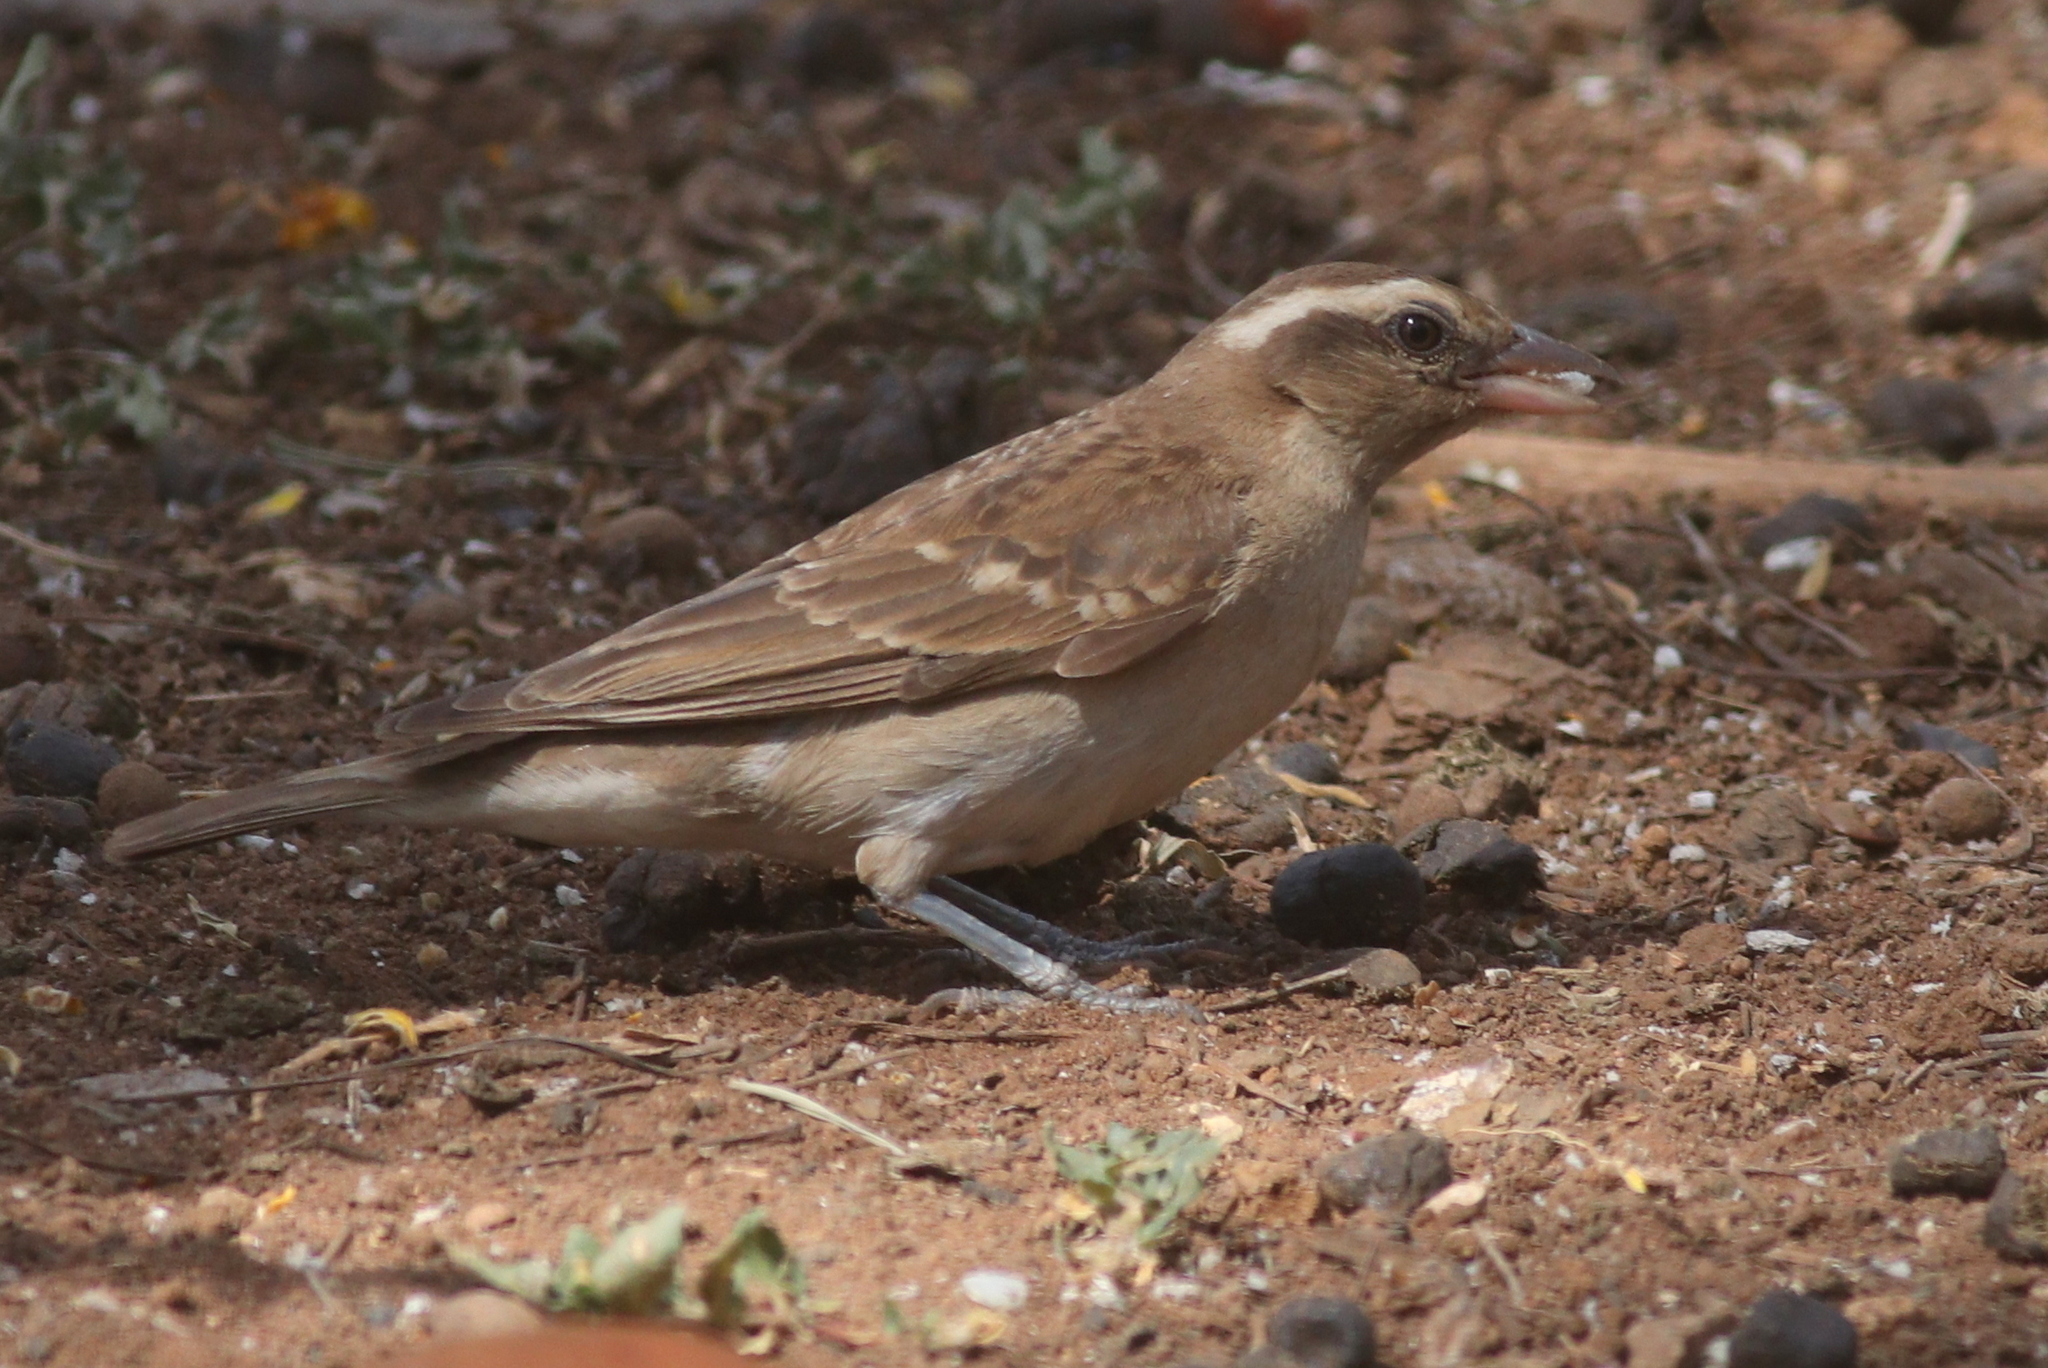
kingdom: Animalia
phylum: Chordata
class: Aves
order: Passeriformes
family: Passeridae
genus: Gymnoris
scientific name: Gymnoris superciliaris
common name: Yellow-throated petronia
